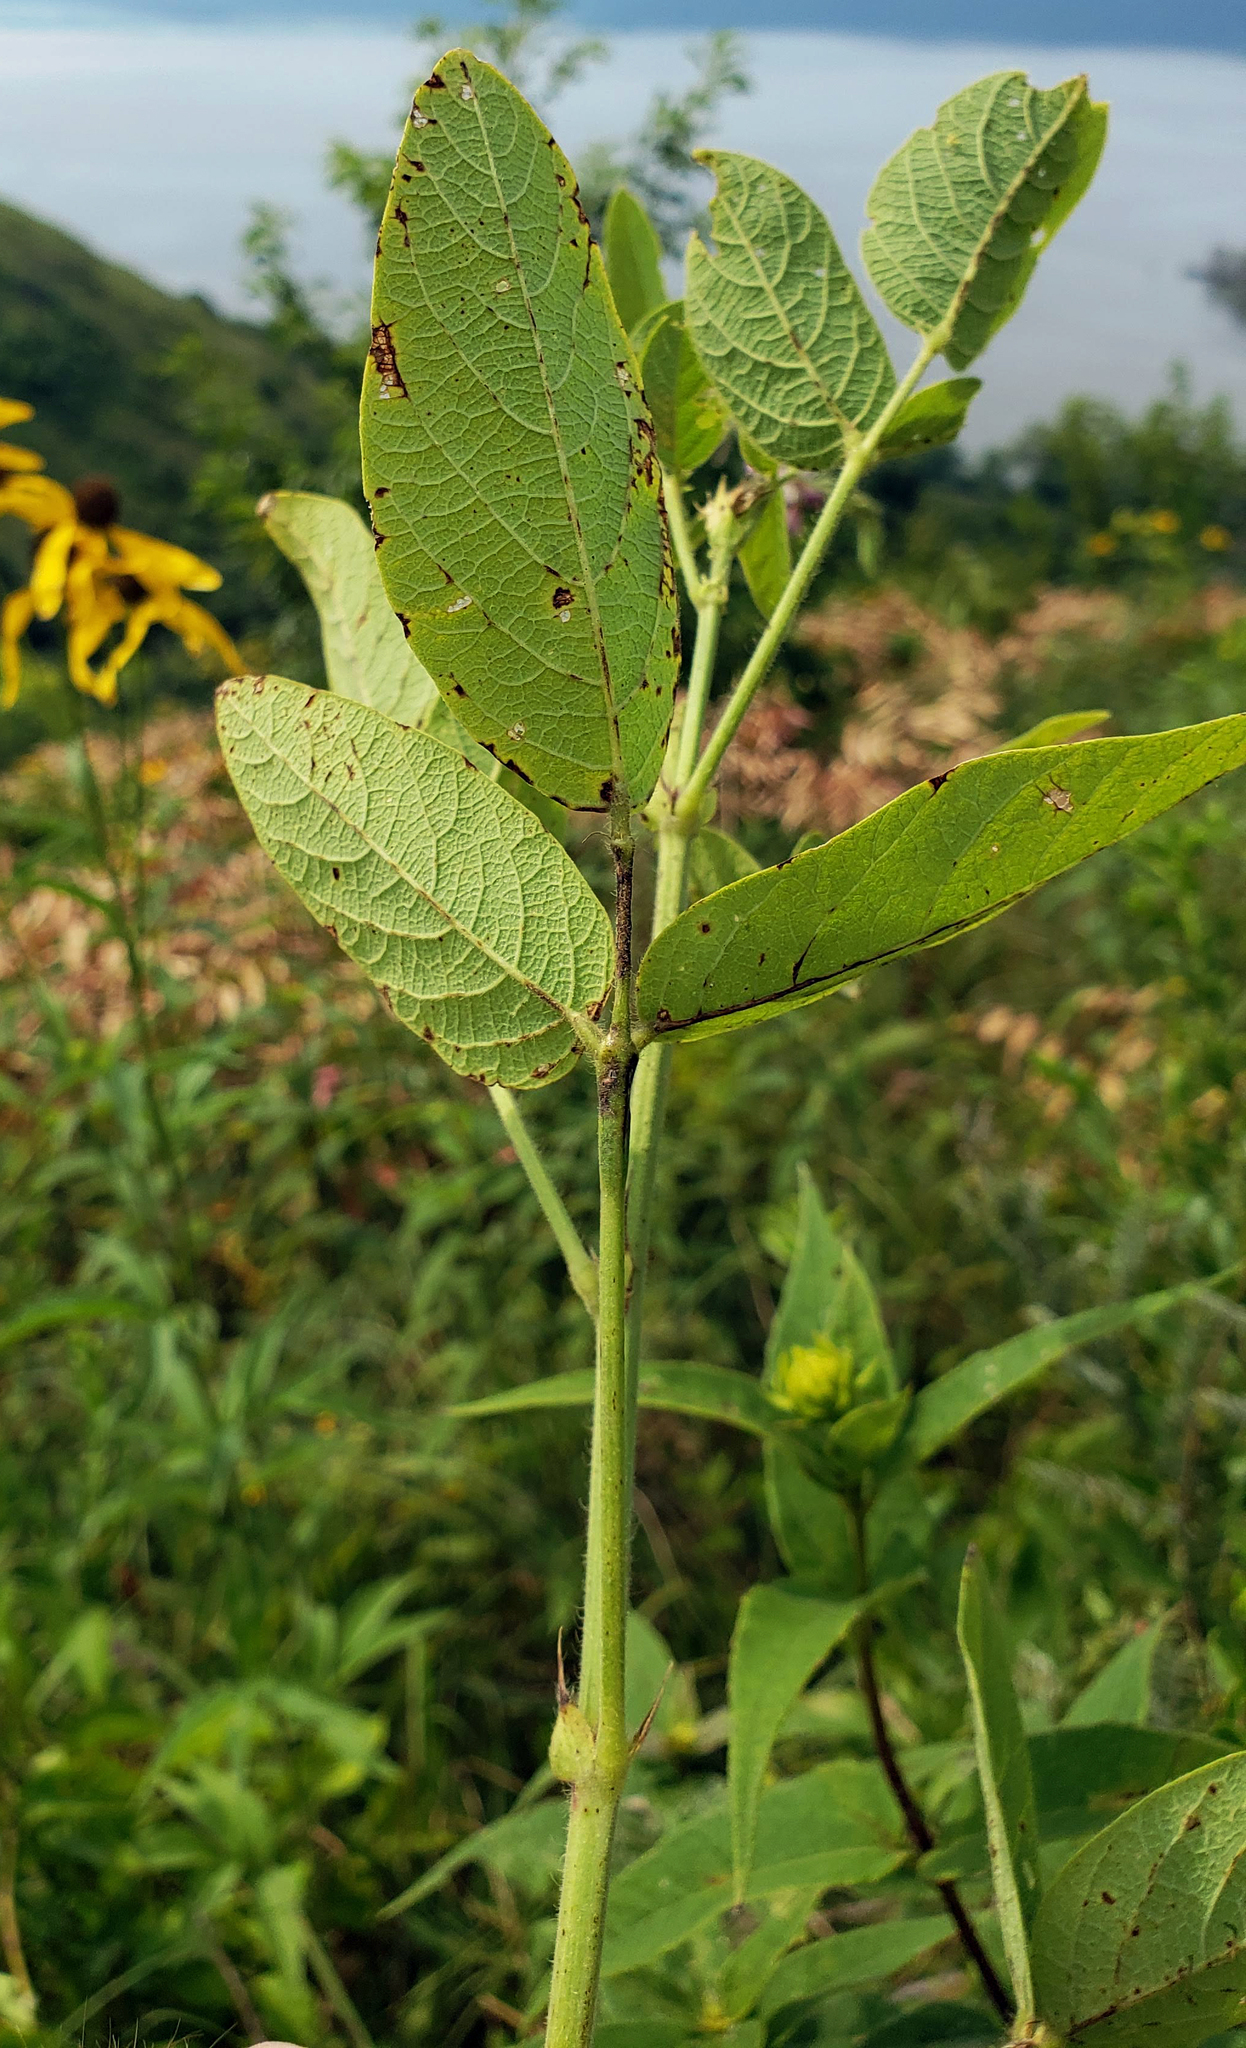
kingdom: Plantae
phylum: Tracheophyta
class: Magnoliopsida
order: Fabales
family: Fabaceae
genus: Desmodium
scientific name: Desmodium illinoense
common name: Illinois tick-clover
